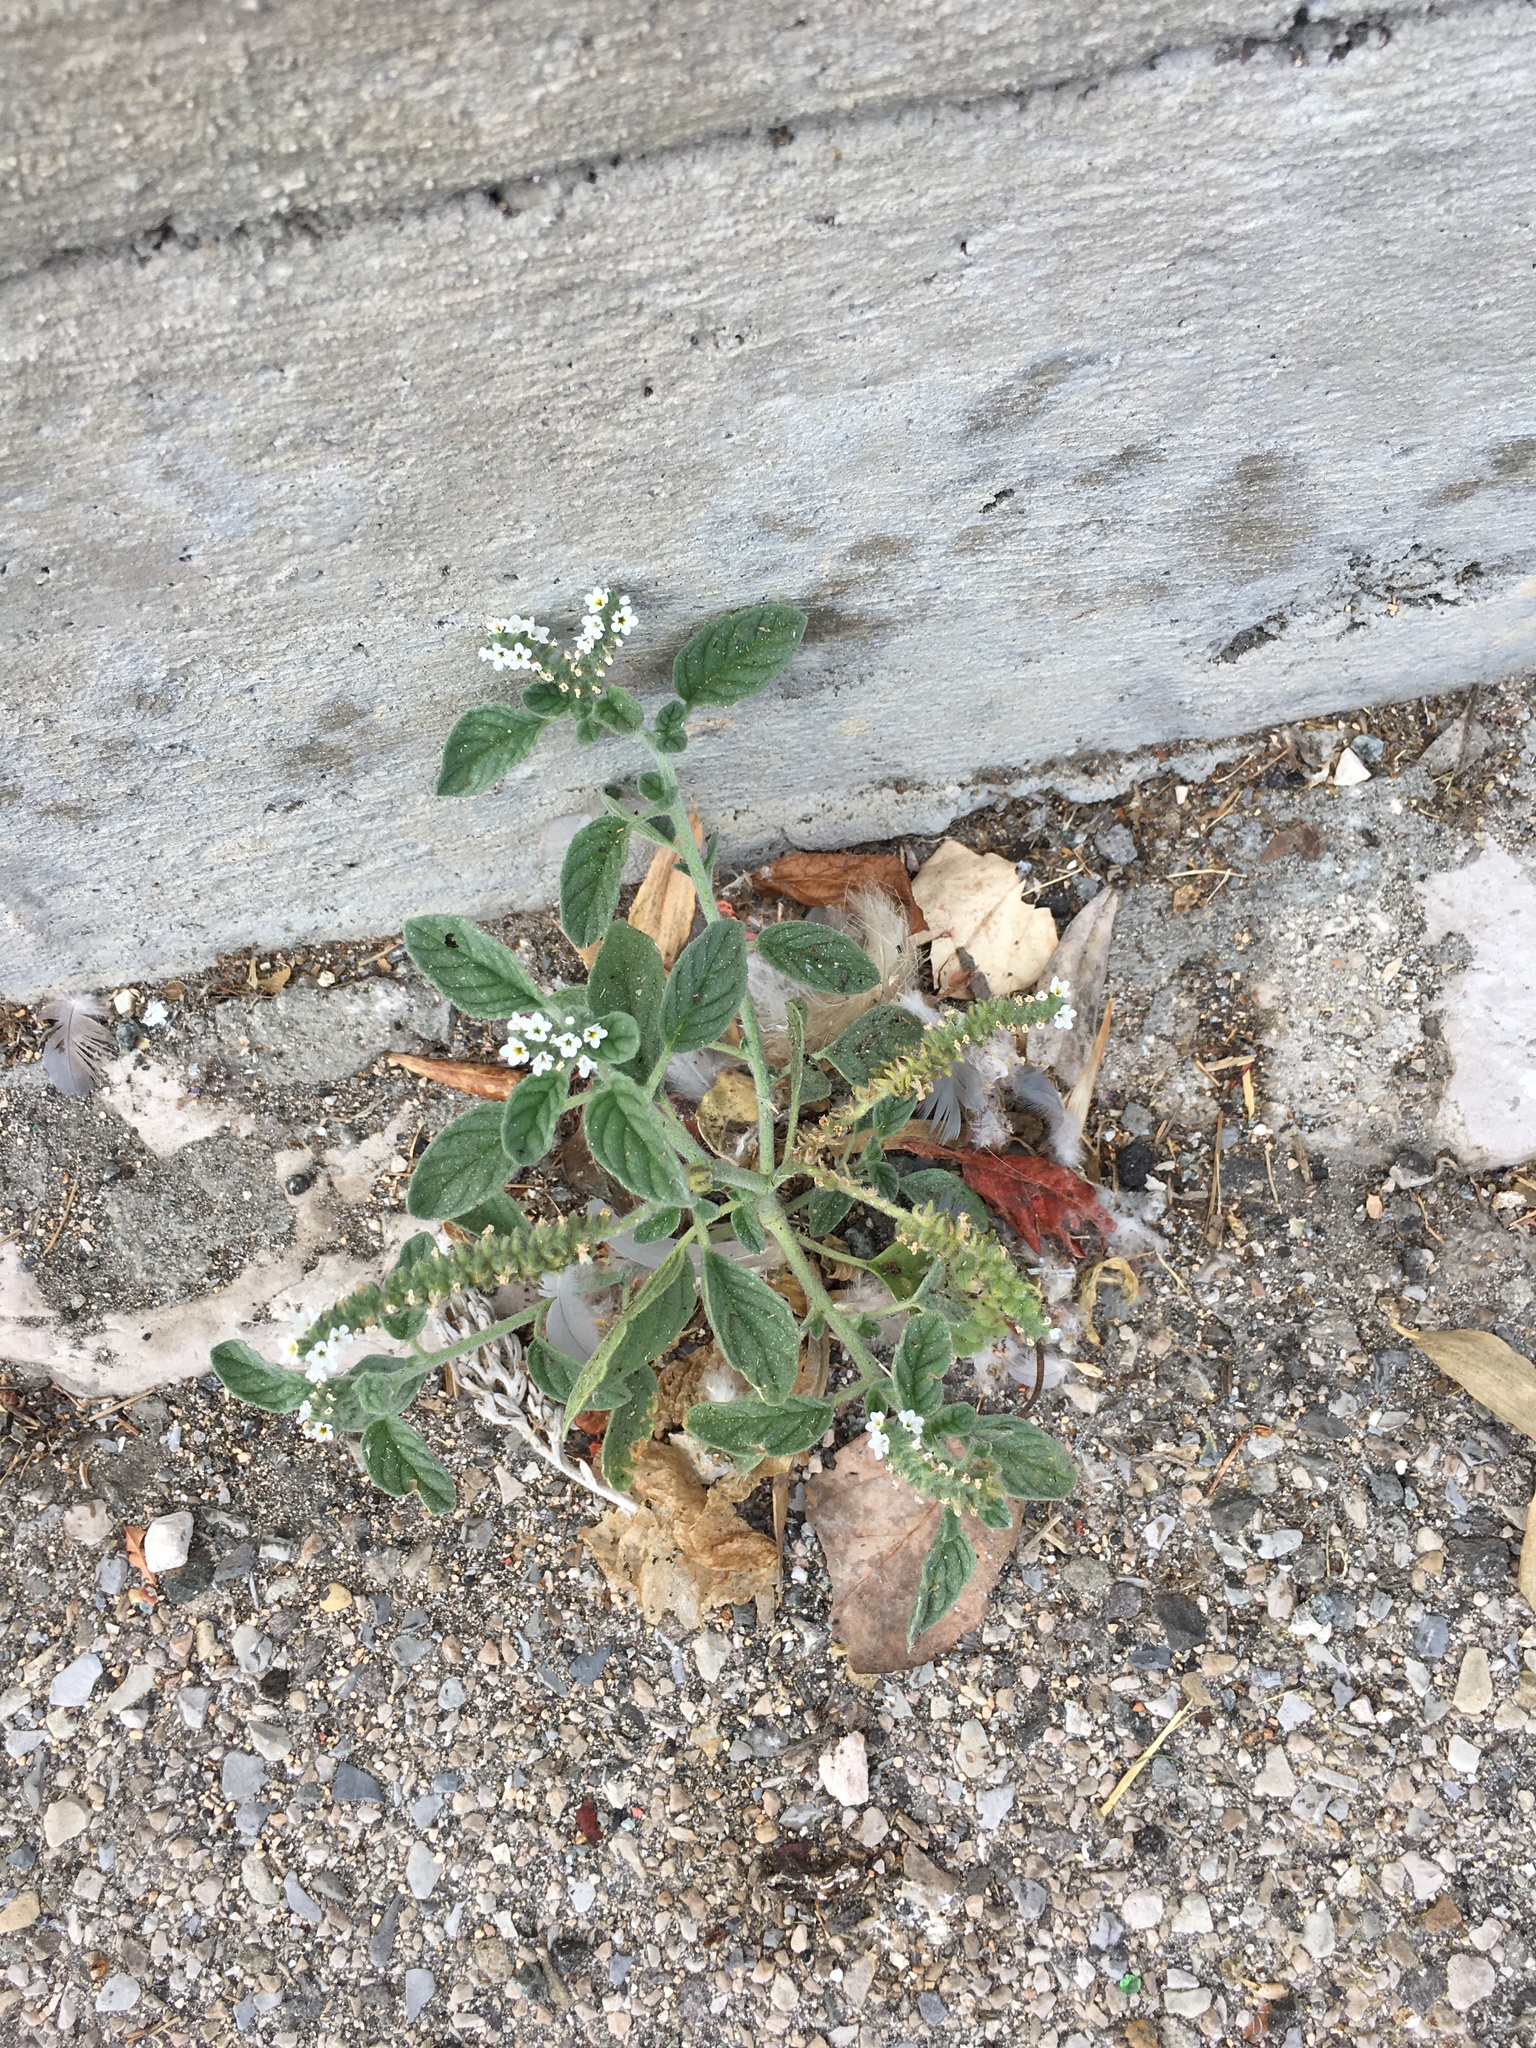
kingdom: Plantae
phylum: Tracheophyta
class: Magnoliopsida
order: Boraginales
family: Heliotropiaceae
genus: Heliotropium
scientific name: Heliotropium europaeum
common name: European heliotrope
